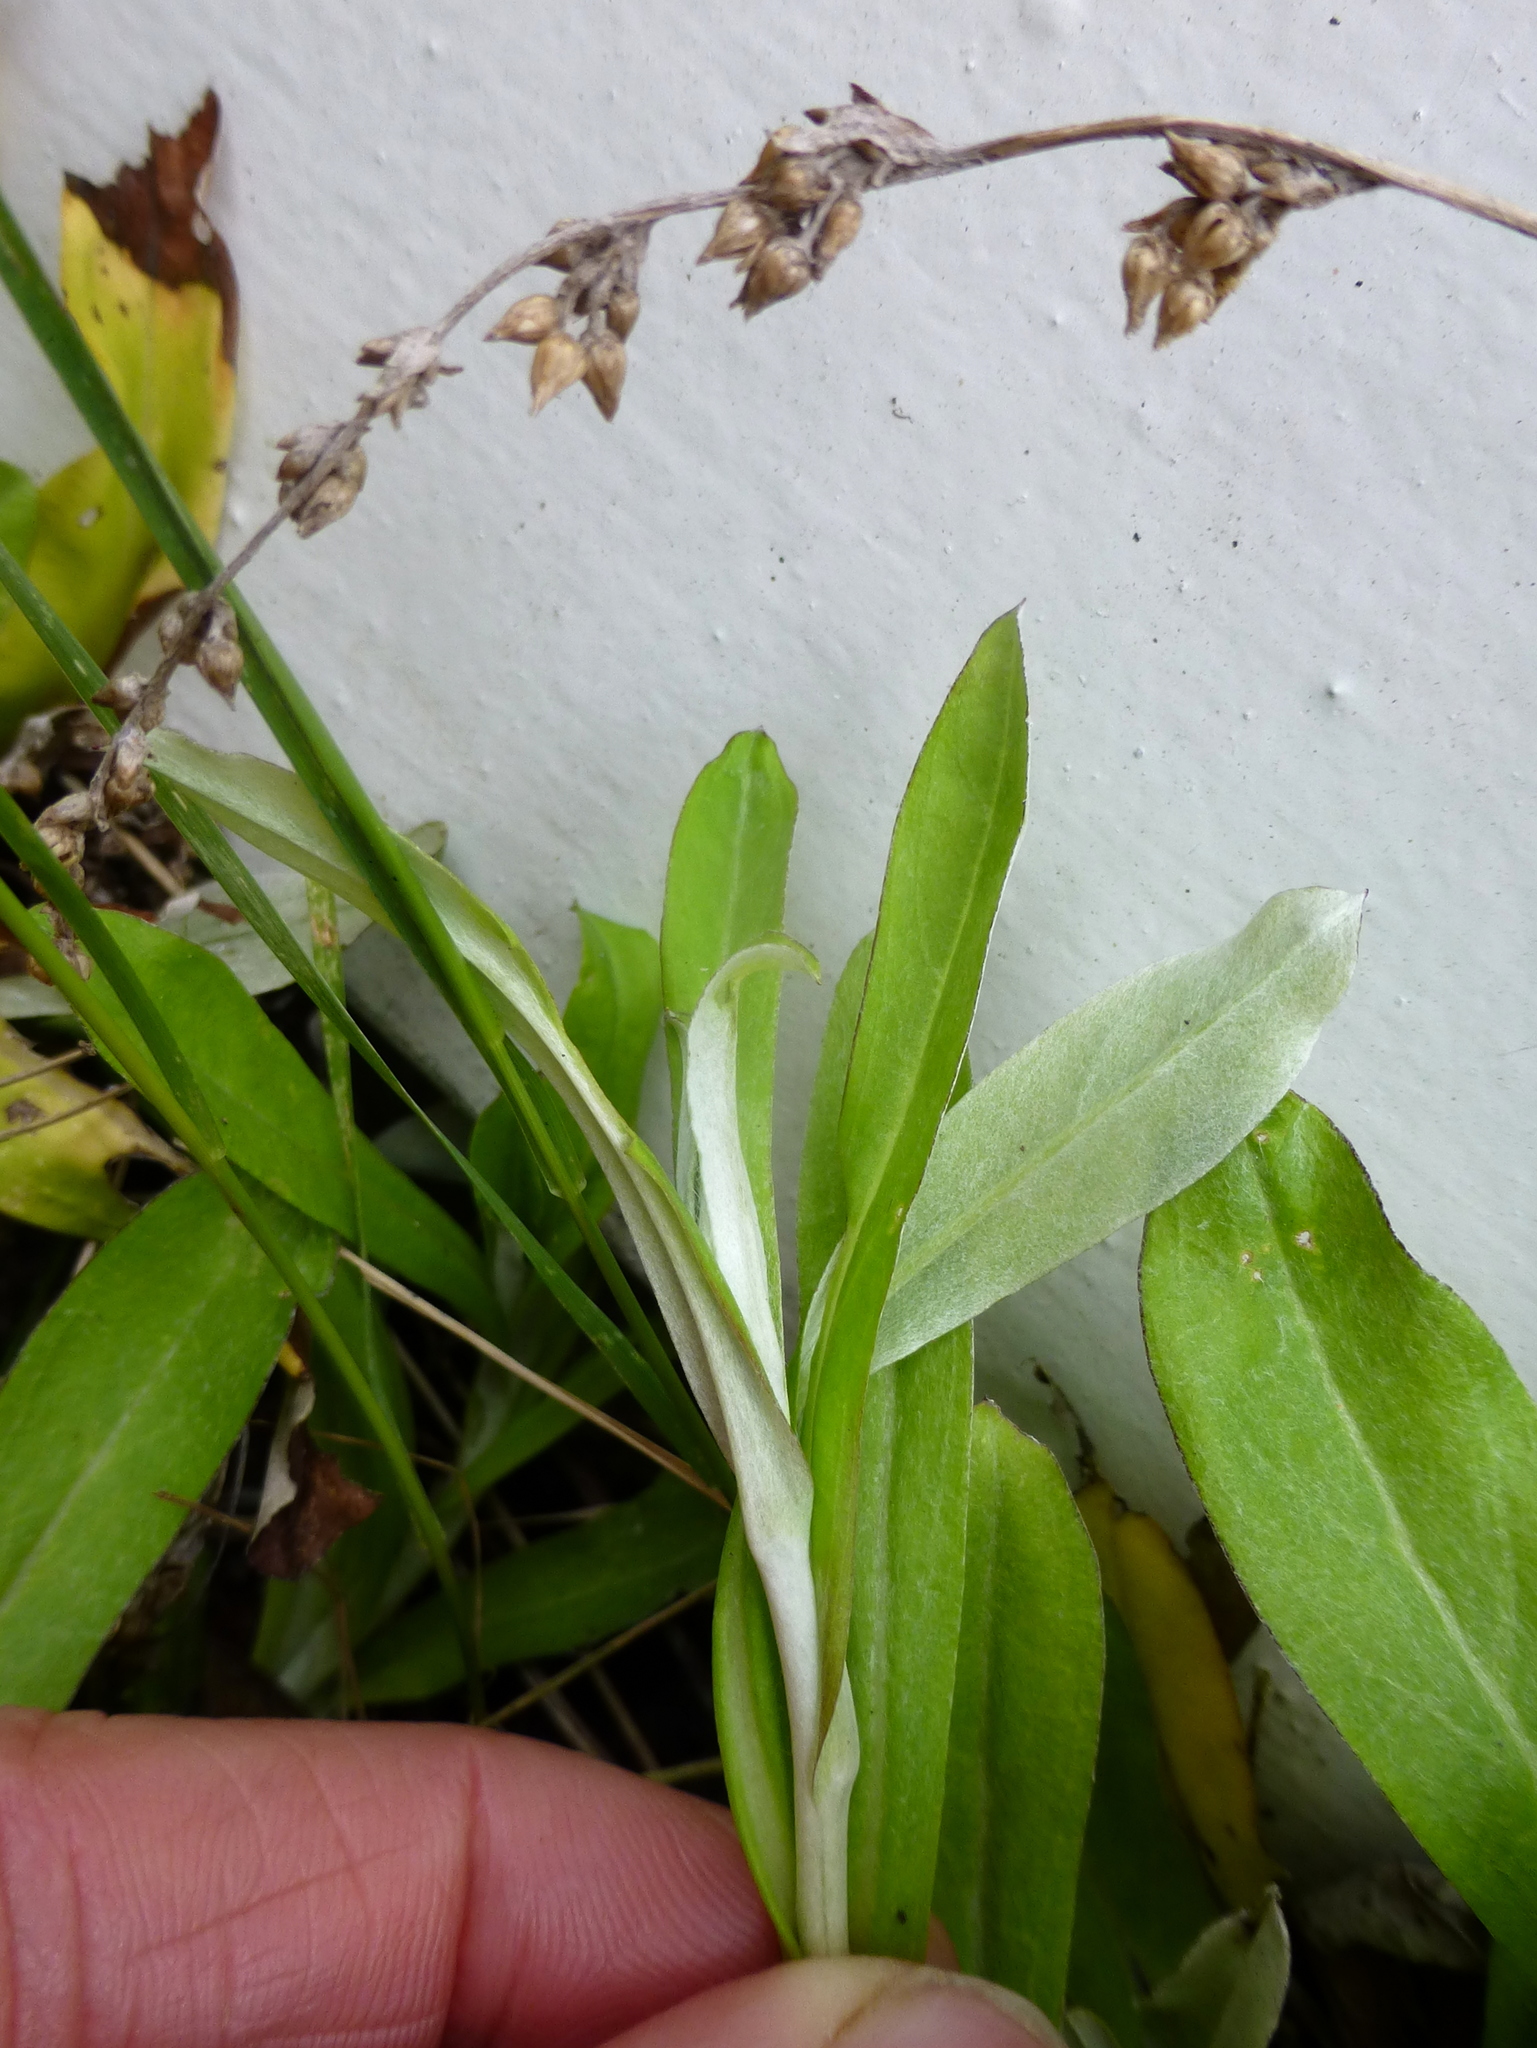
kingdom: Plantae
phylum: Tracheophyta
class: Magnoliopsida
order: Asterales
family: Asteraceae
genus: Gamochaeta
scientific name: Gamochaeta americana
